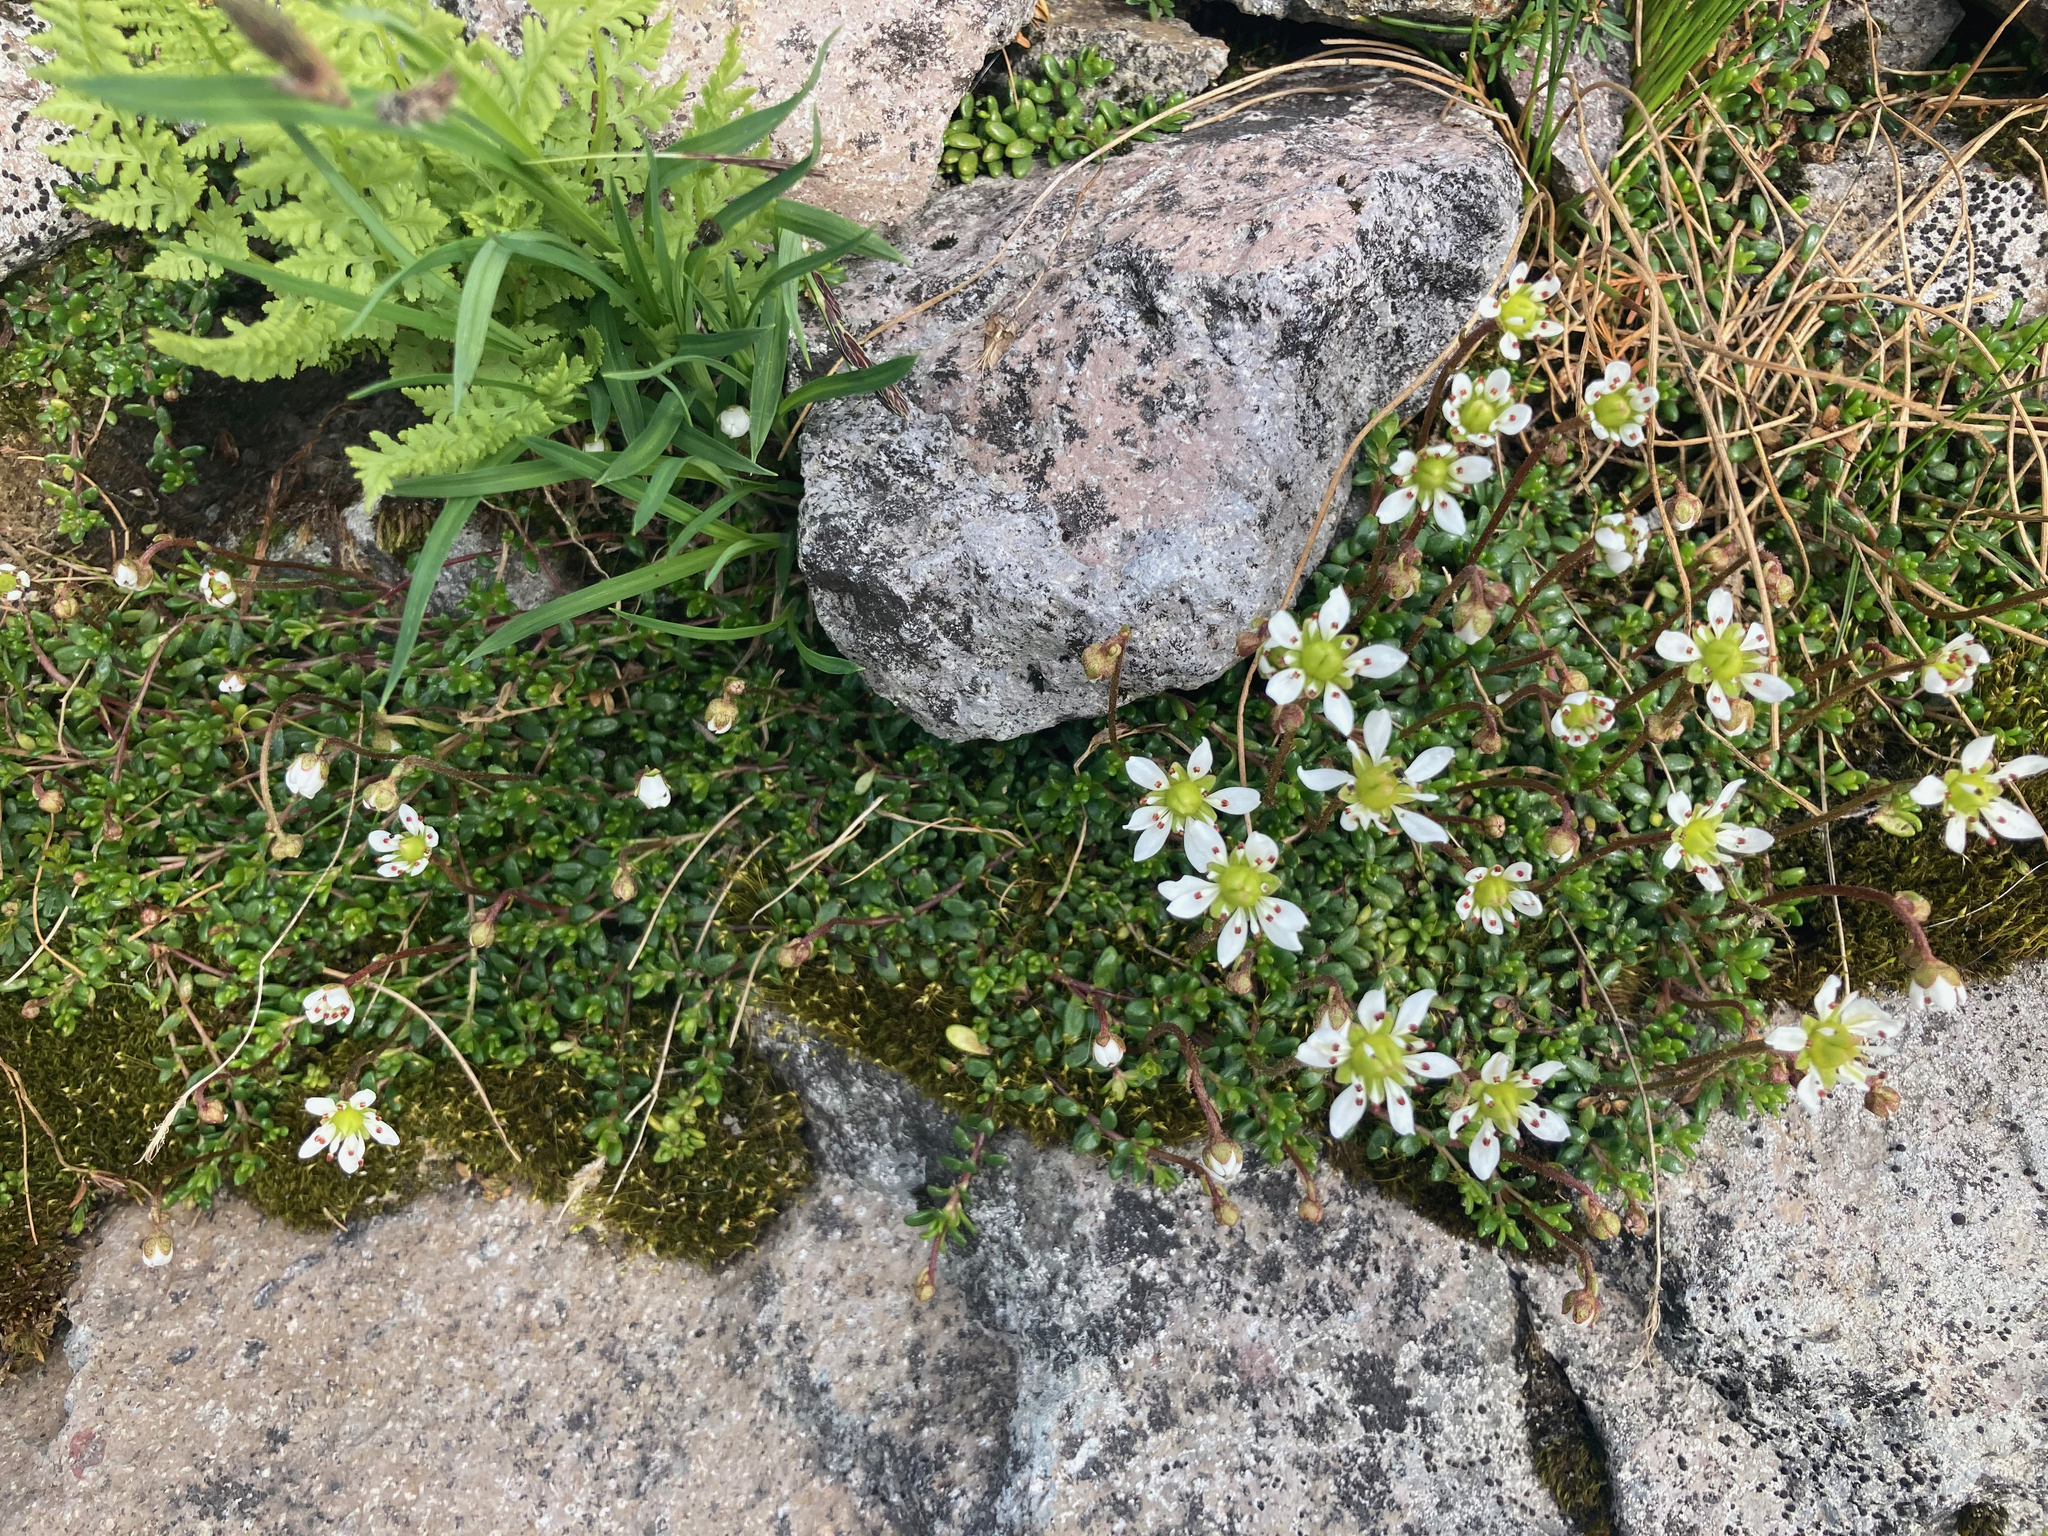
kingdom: Plantae
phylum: Tracheophyta
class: Magnoliopsida
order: Saxifragales
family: Saxifragaceae
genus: Micranthes
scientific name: Micranthes tolmiei
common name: Tolmie's saxifrage
